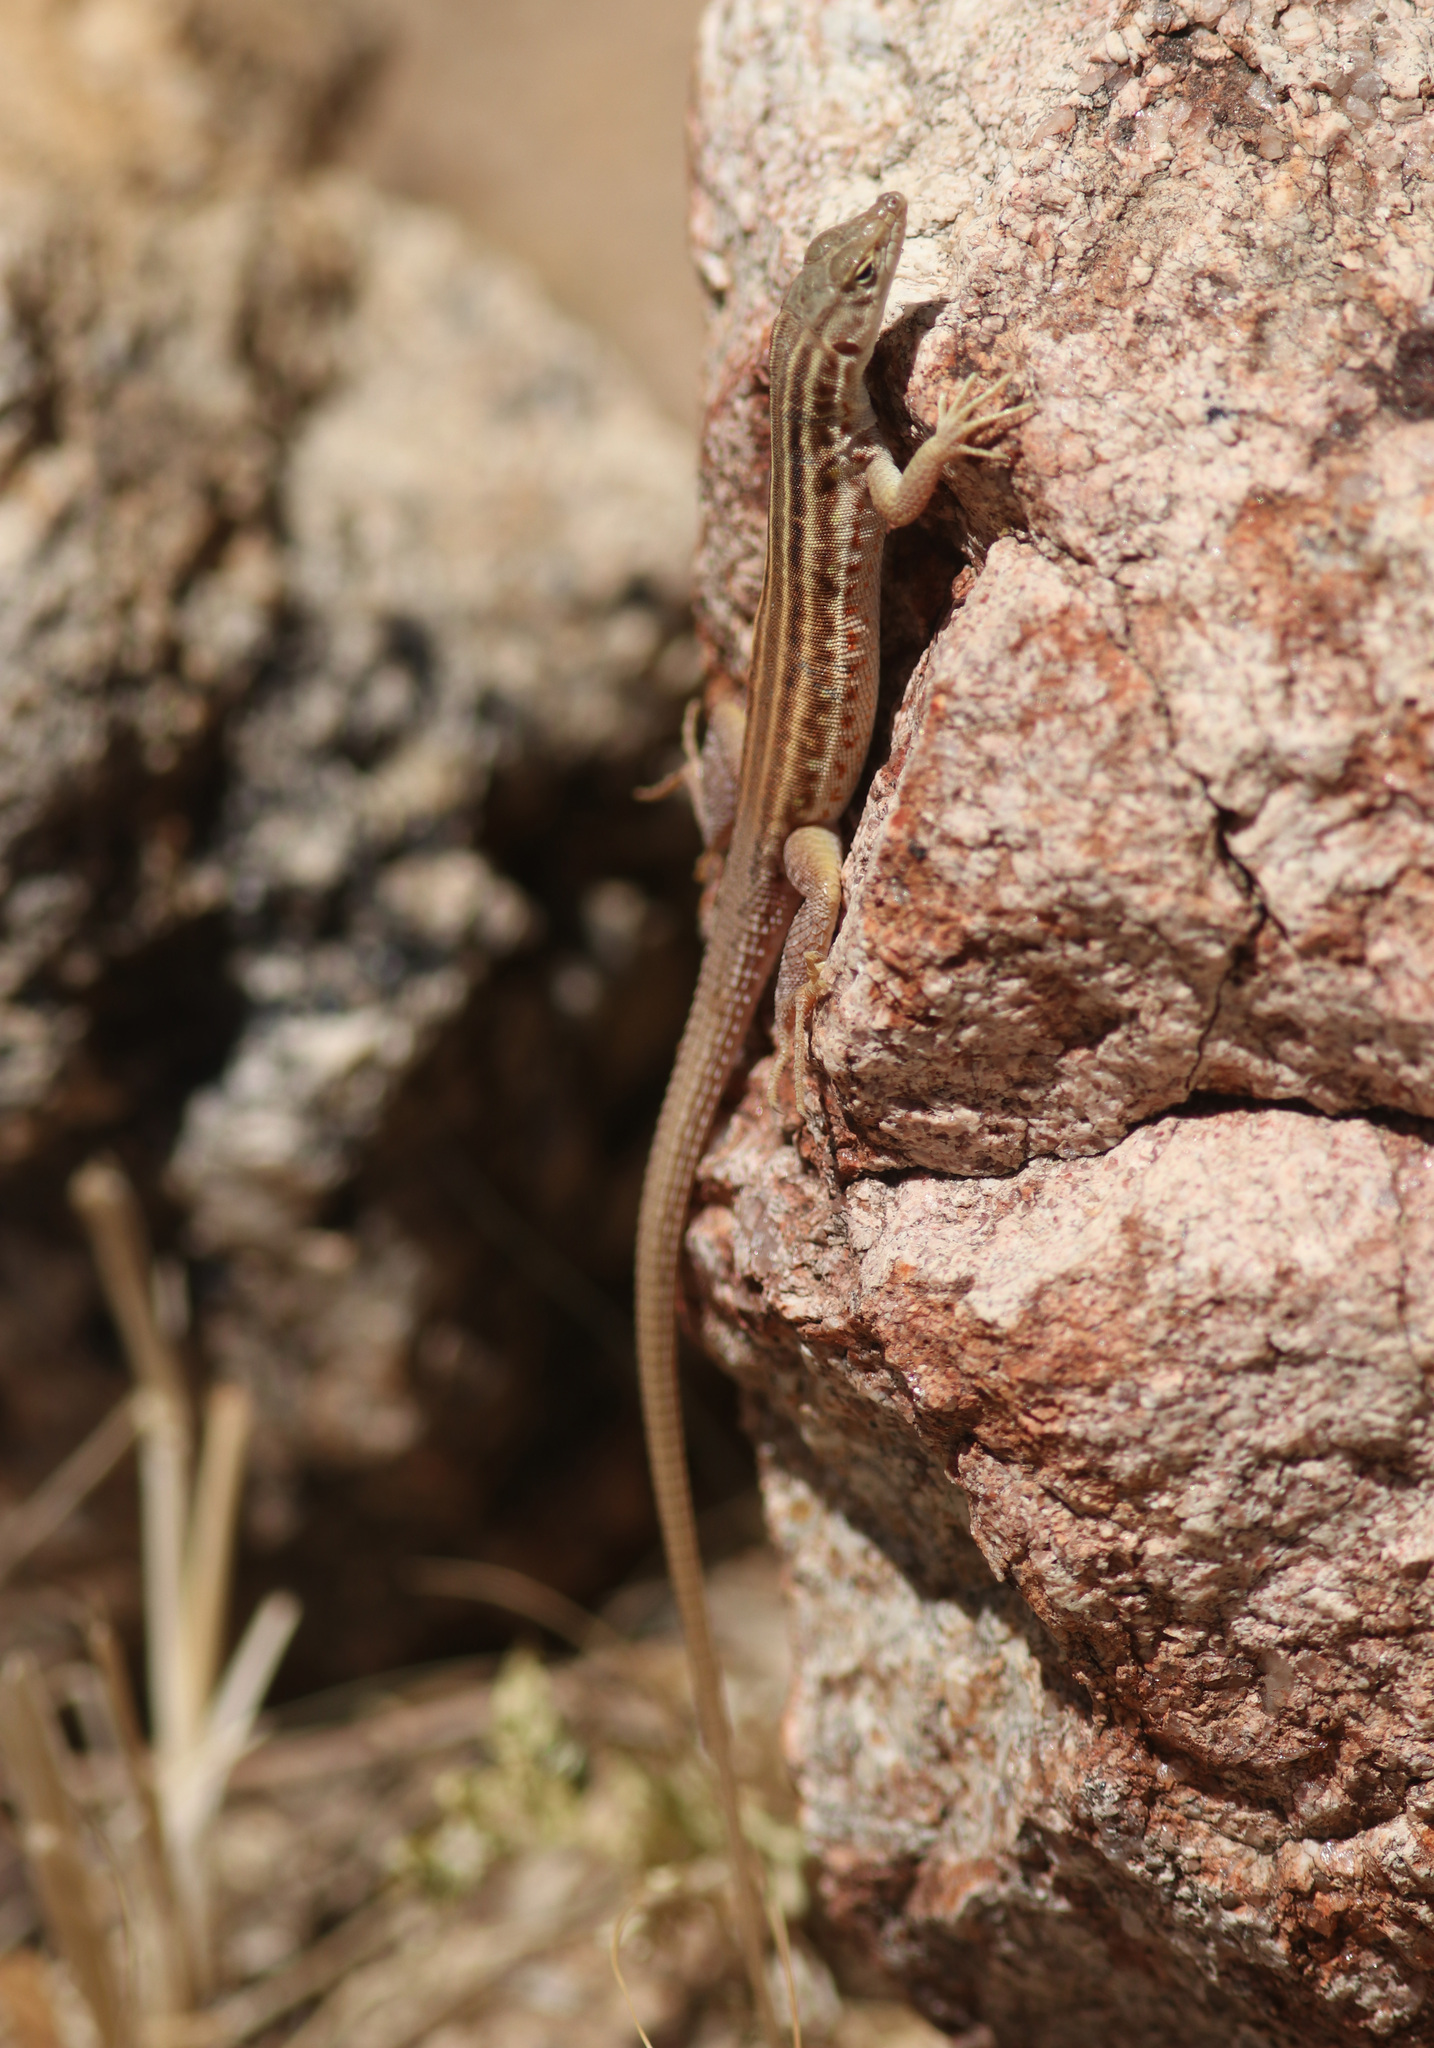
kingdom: Animalia
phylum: Chordata
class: Squamata
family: Lacertidae
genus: Pedioplanis
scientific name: Pedioplanis undata
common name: Plain sand lizard
